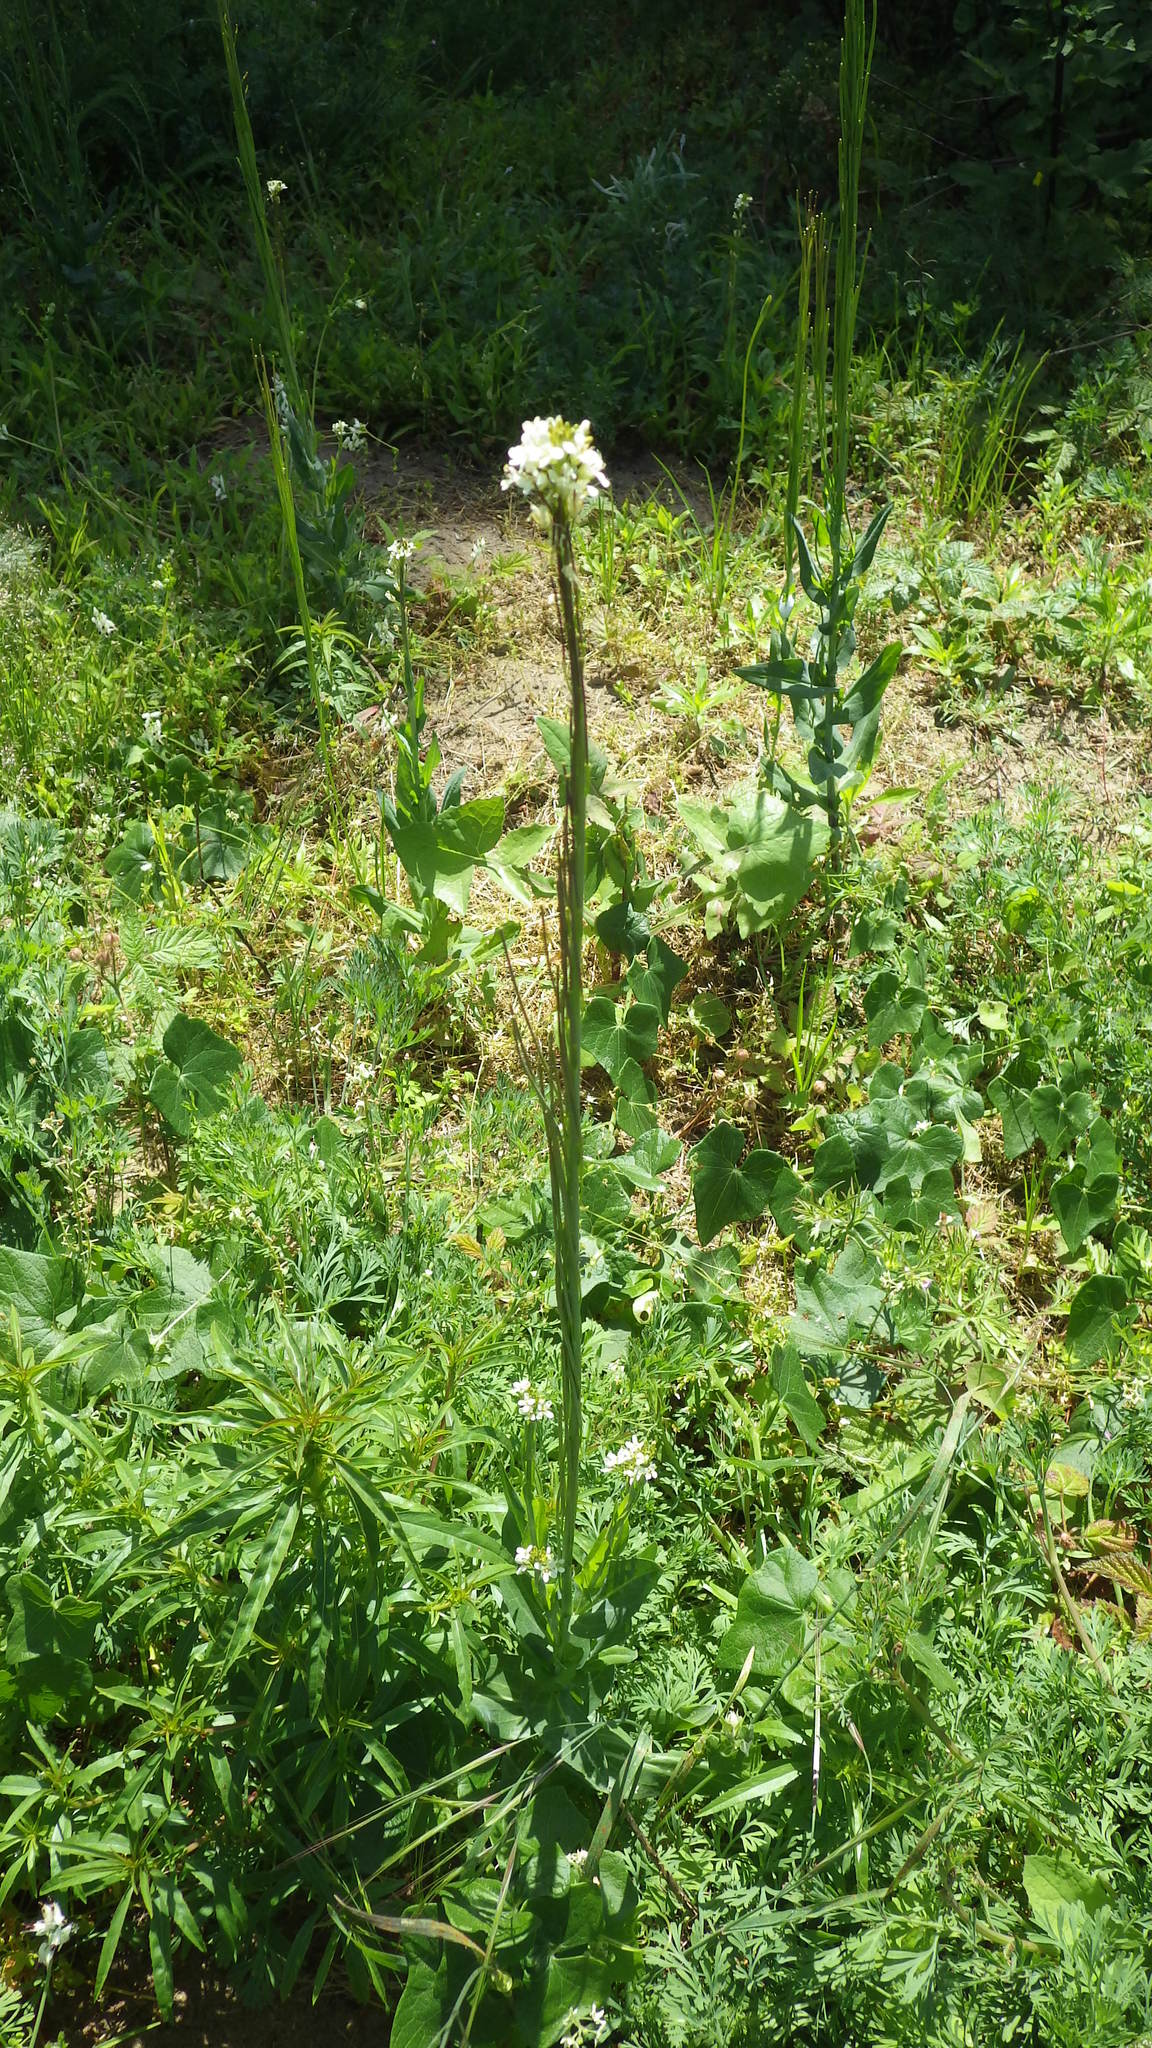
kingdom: Plantae
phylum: Tracheophyta
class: Magnoliopsida
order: Brassicales
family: Brassicaceae
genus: Turritis
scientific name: Turritis glabra
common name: Tower rockcress
